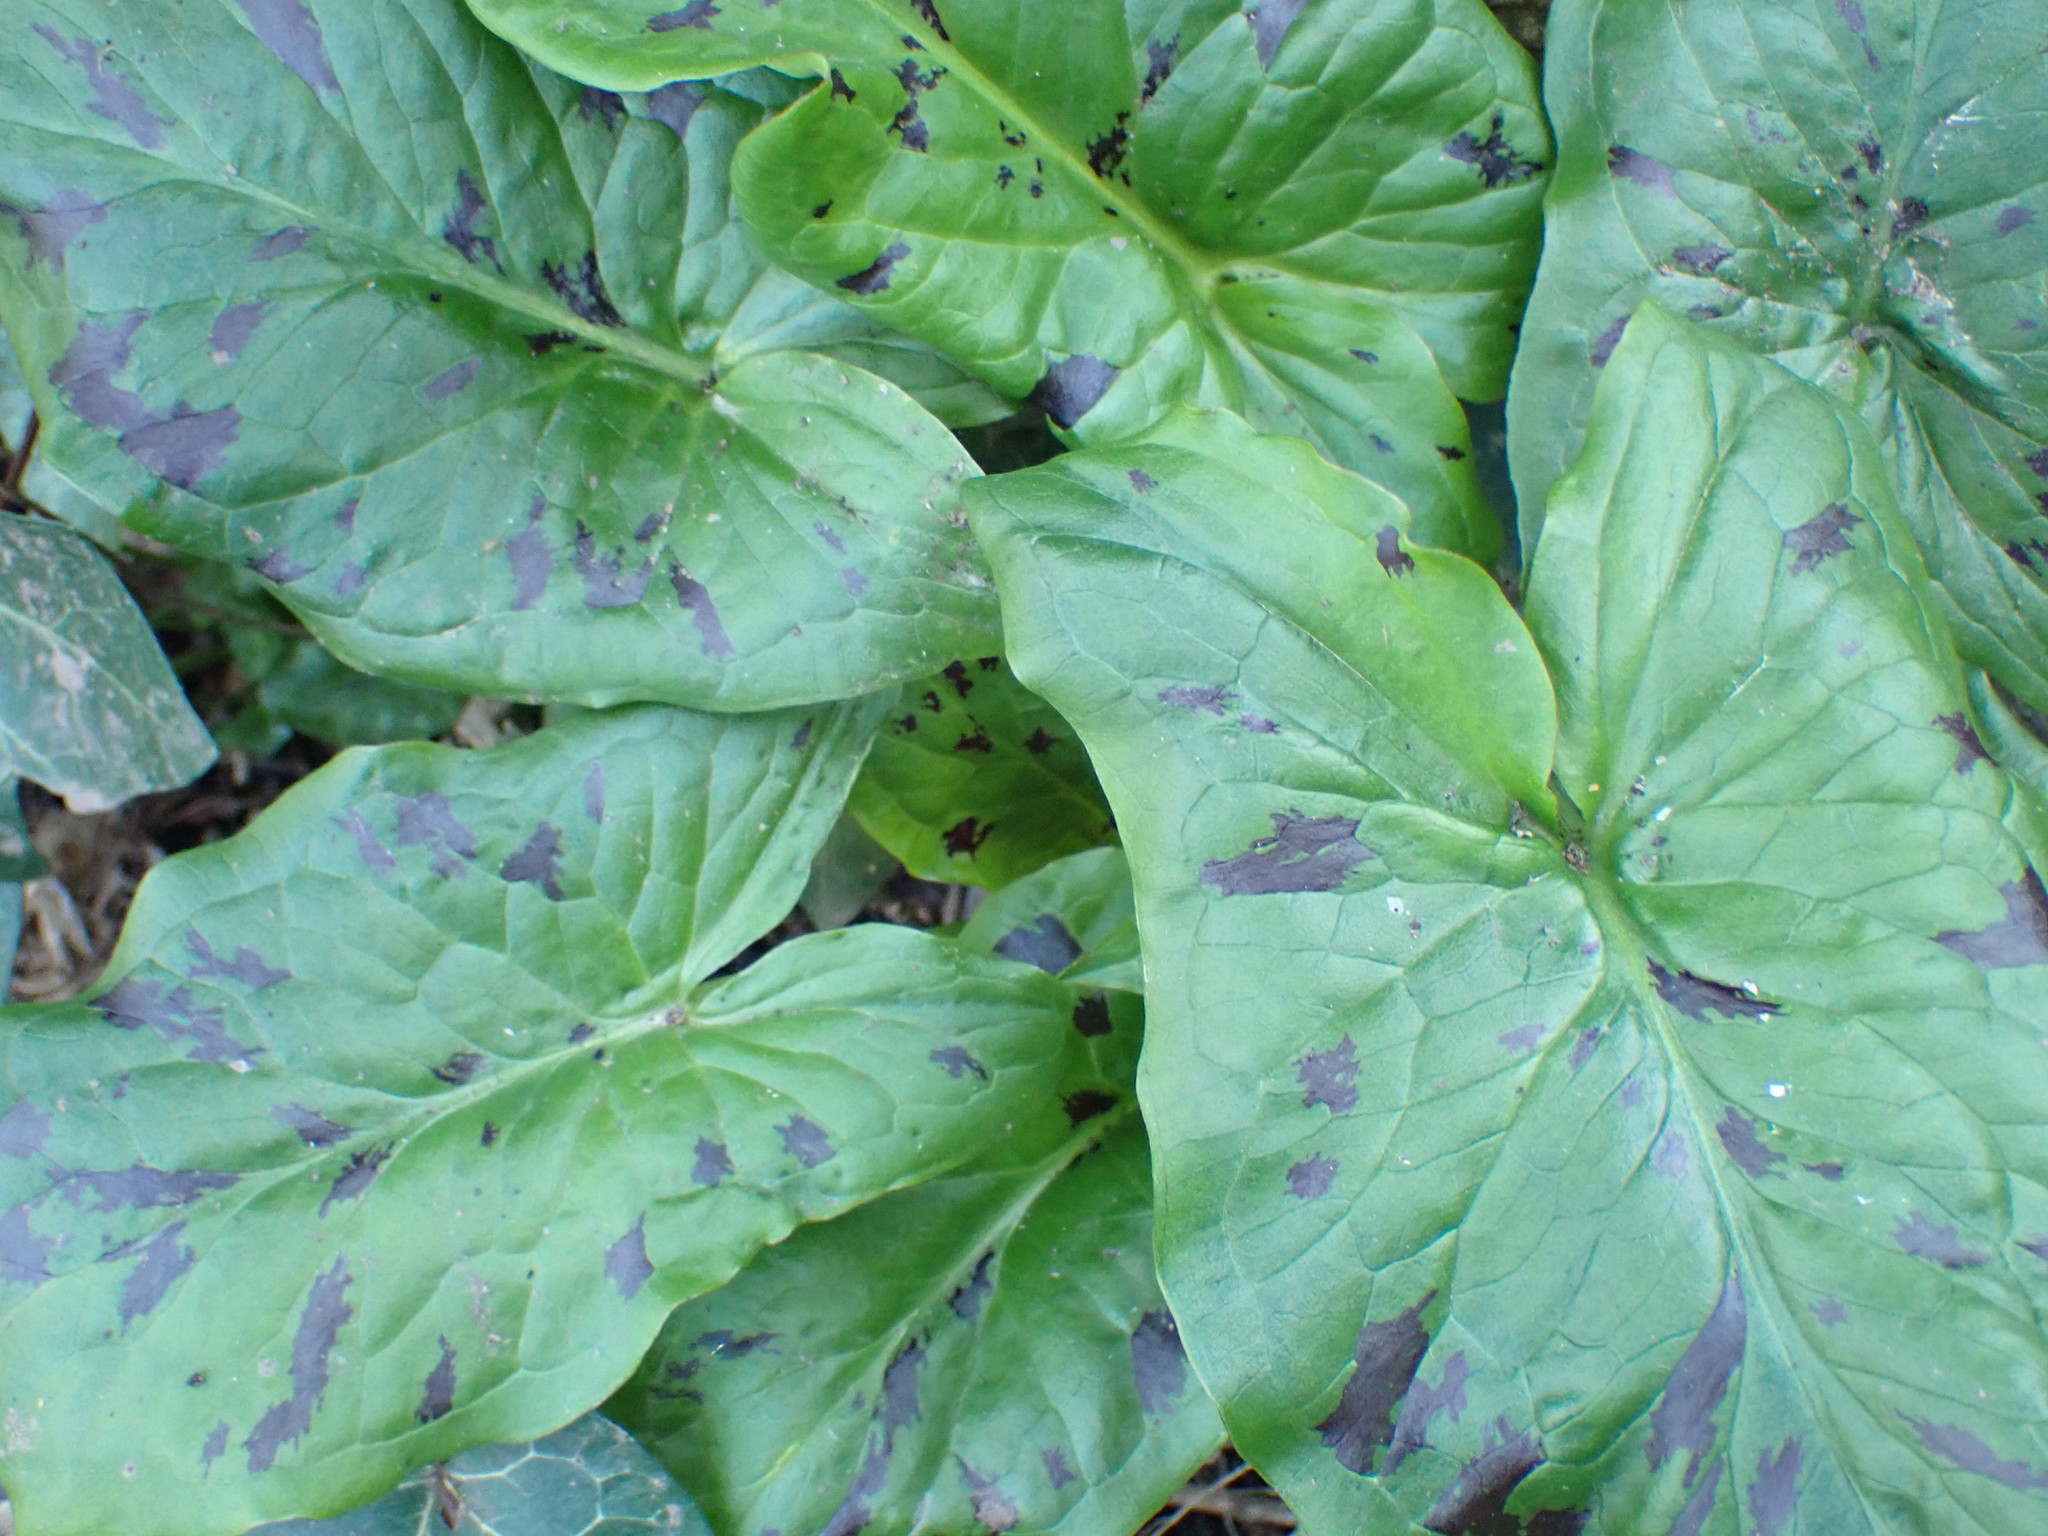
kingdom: Plantae
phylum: Tracheophyta
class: Liliopsida
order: Alismatales
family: Araceae
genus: Arum
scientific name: Arum maculatum
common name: Lords-and-ladies
